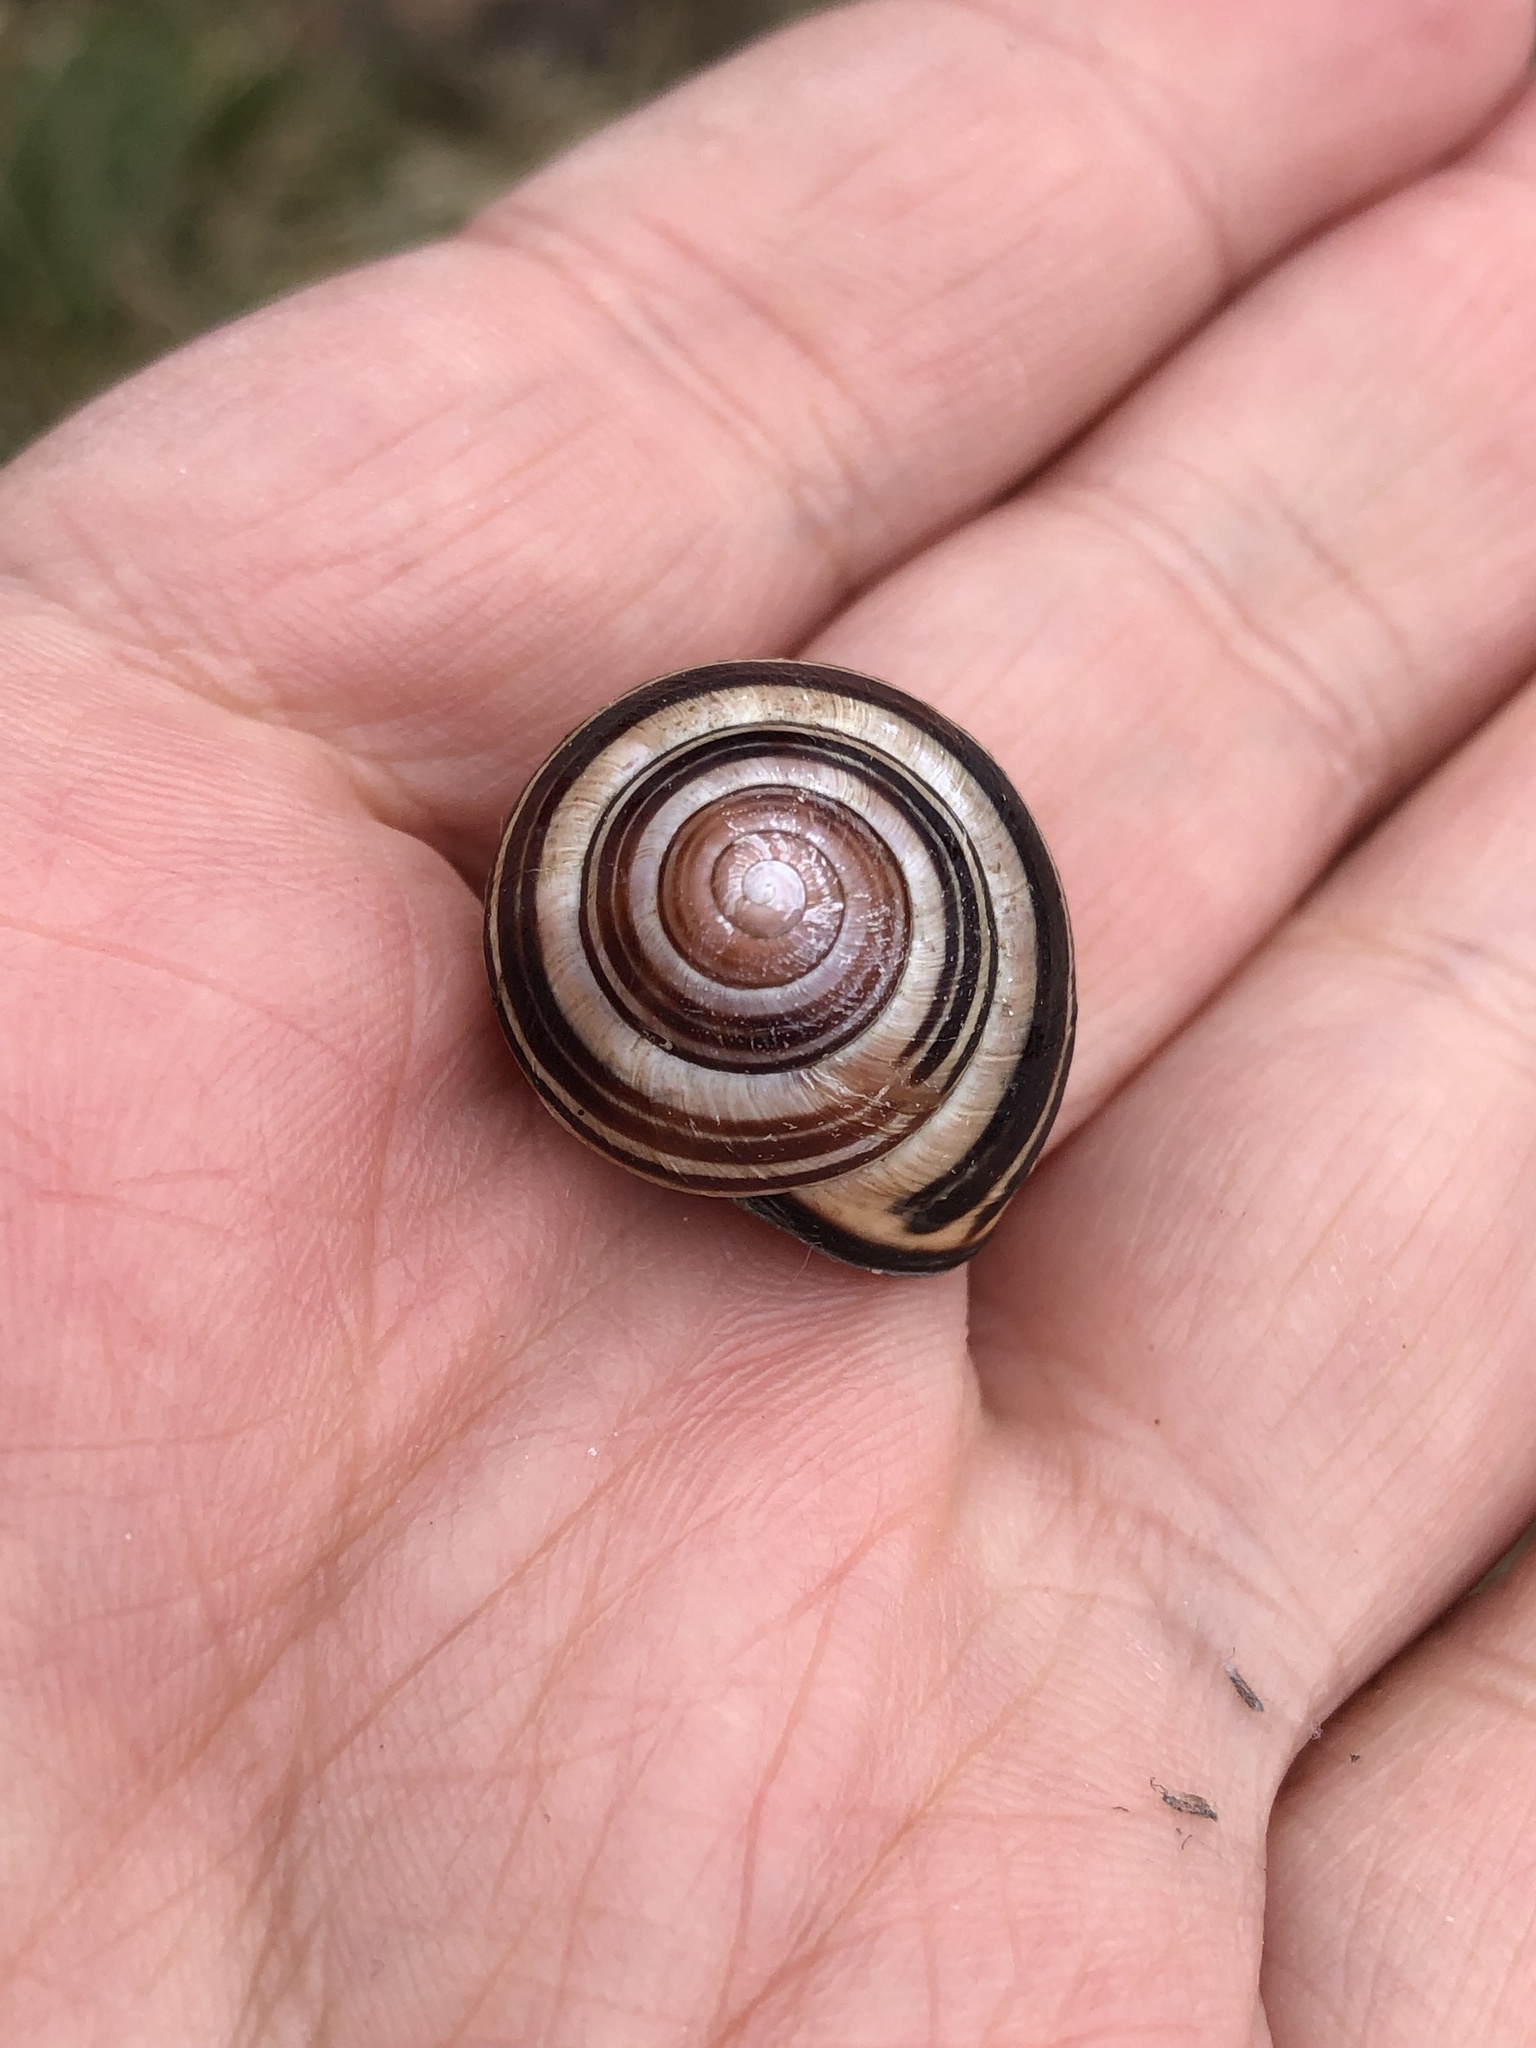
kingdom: Animalia
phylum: Mollusca
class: Gastropoda
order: Stylommatophora
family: Helicidae
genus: Cepaea
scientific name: Cepaea nemoralis
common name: Grovesnail
